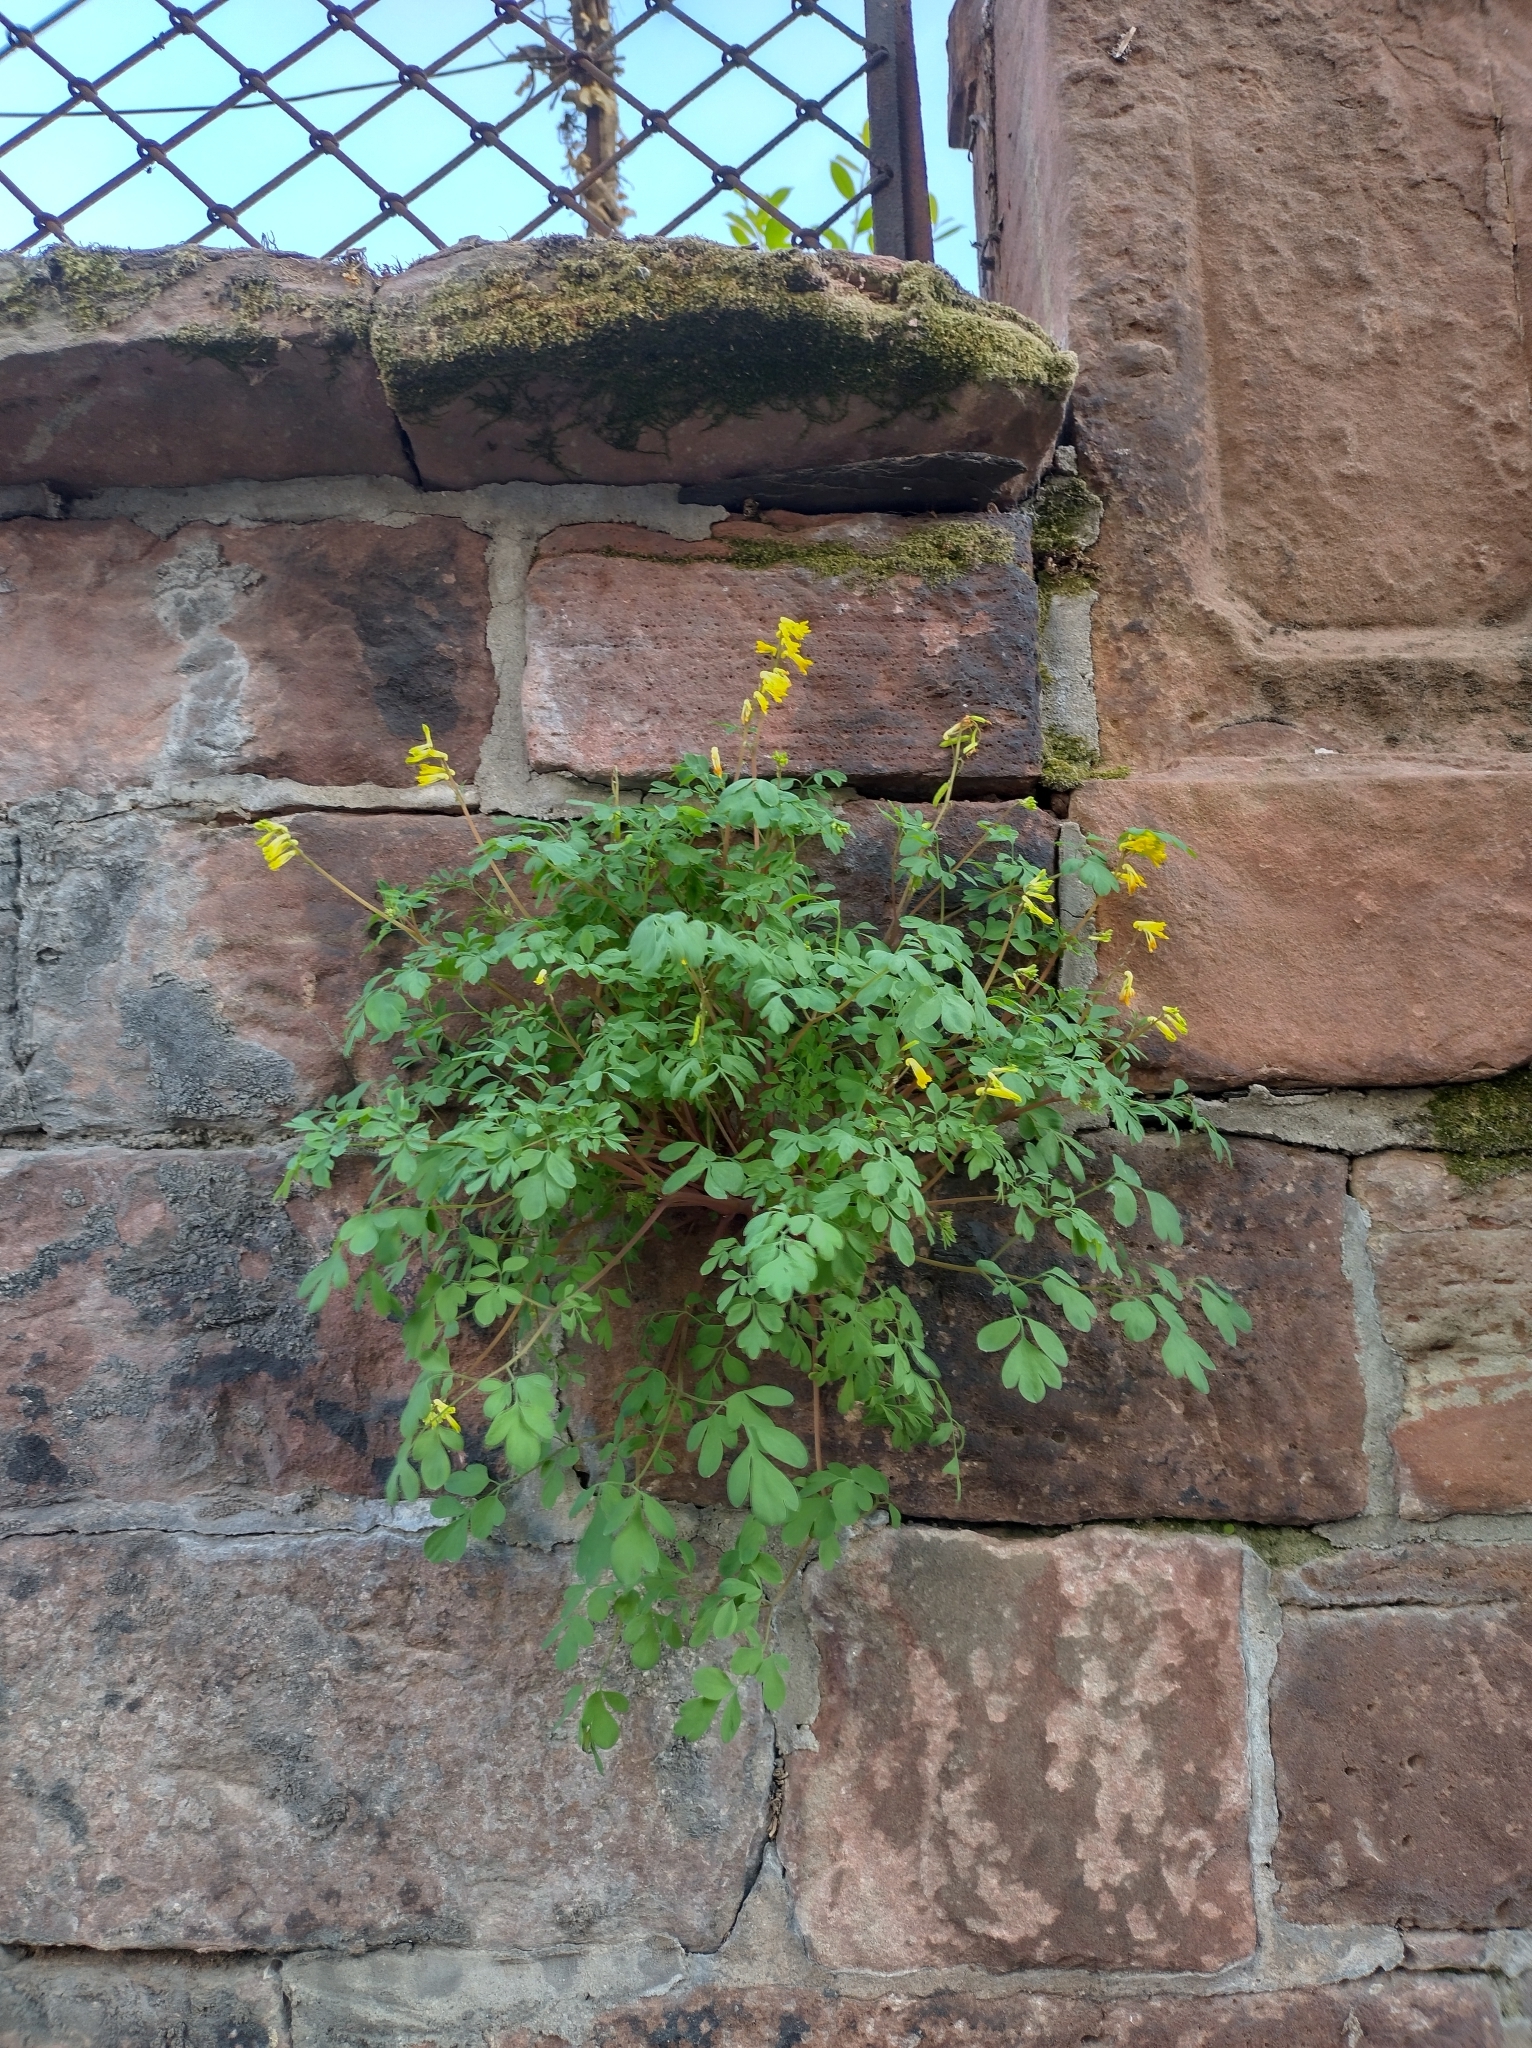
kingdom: Plantae
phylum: Tracheophyta
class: Magnoliopsida
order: Ranunculales
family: Papaveraceae
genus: Pseudofumaria
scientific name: Pseudofumaria lutea
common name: Yellow corydalis
